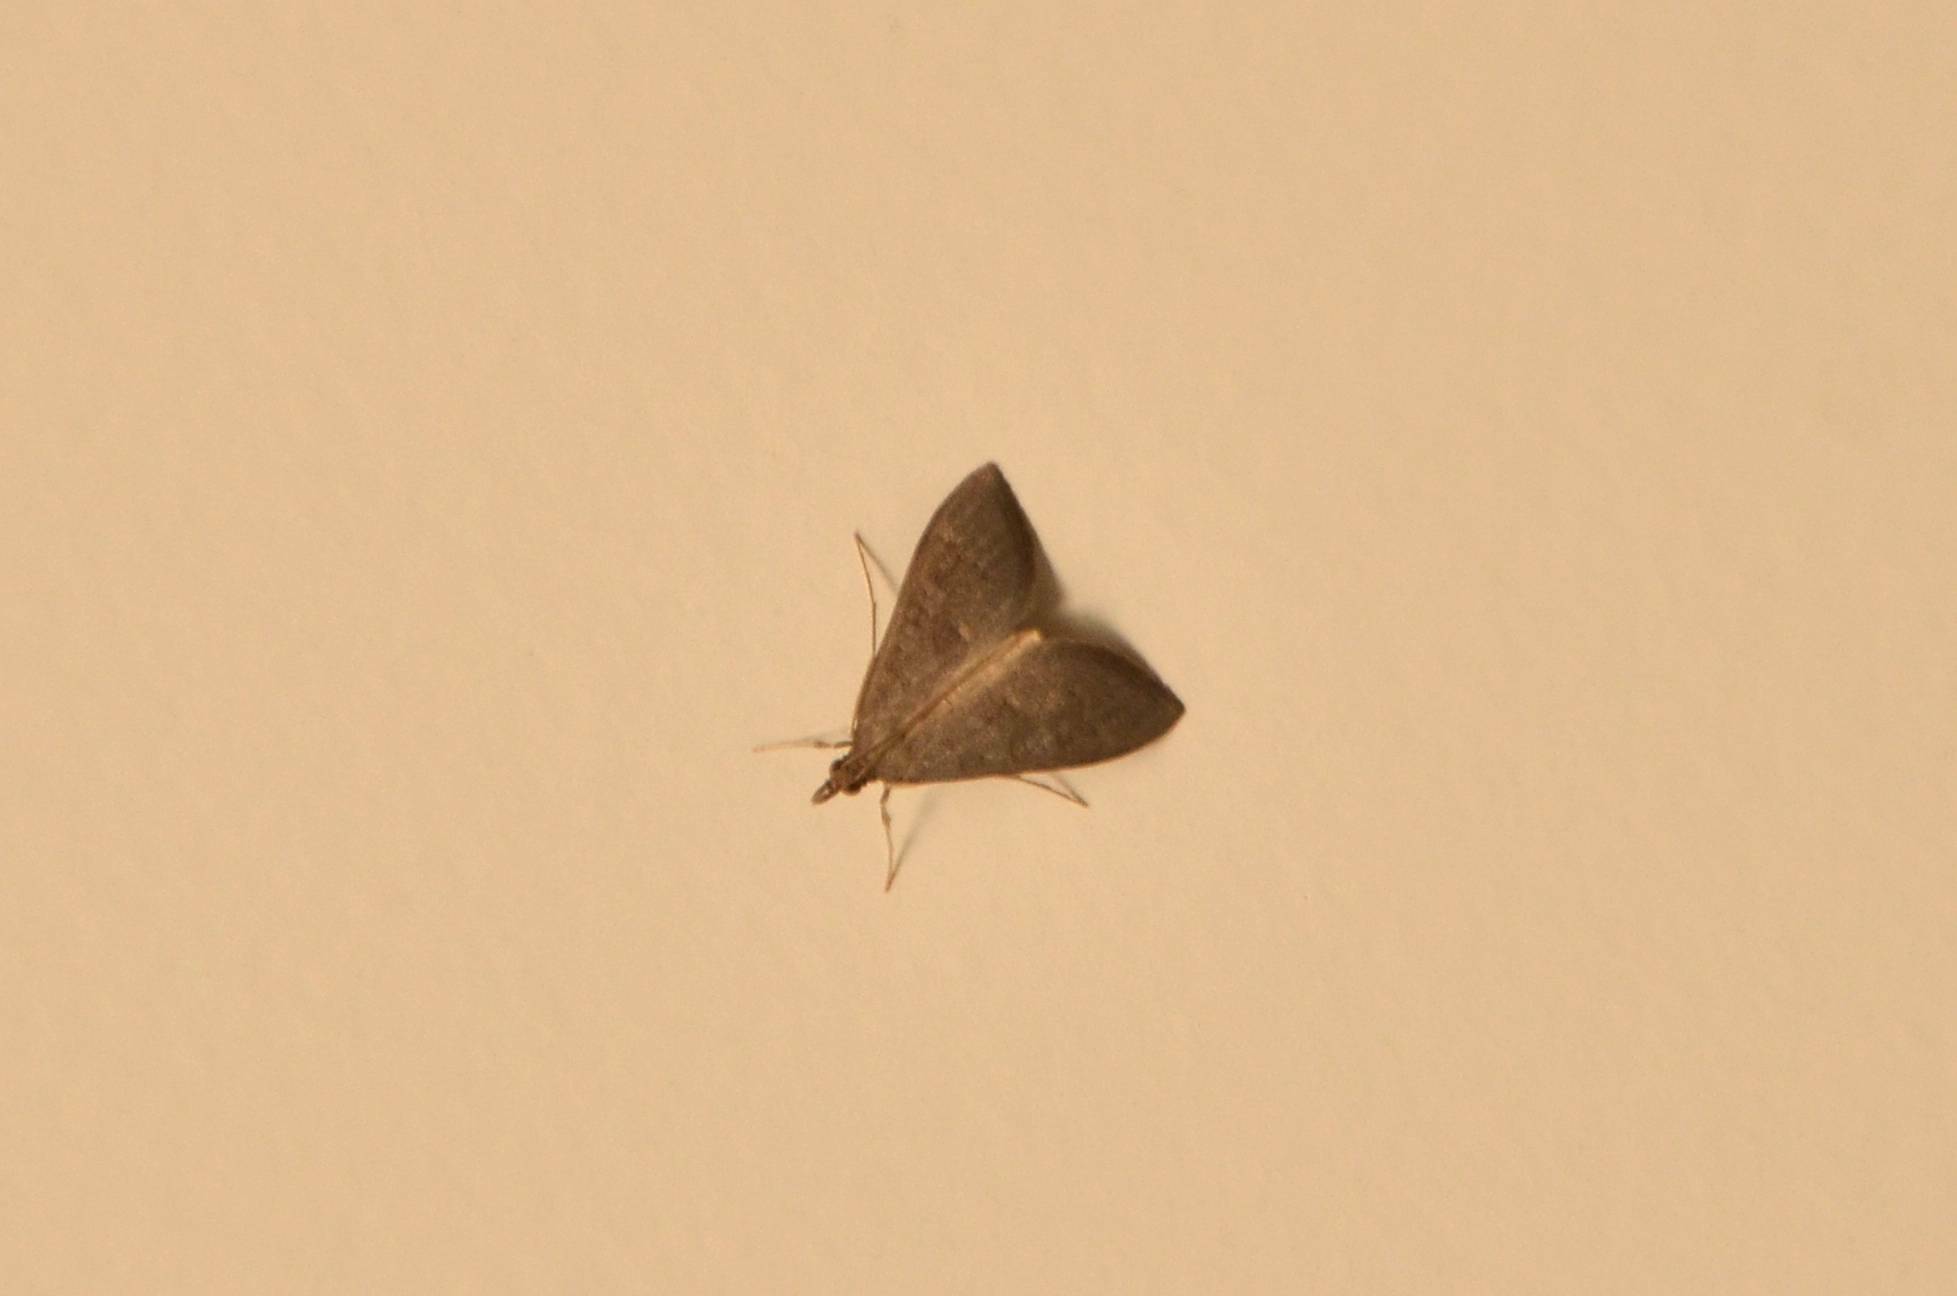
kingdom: Animalia
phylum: Arthropoda
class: Insecta
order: Lepidoptera
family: Crambidae
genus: Mecyna
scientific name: Mecyna asinalis
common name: Coastal pearl
